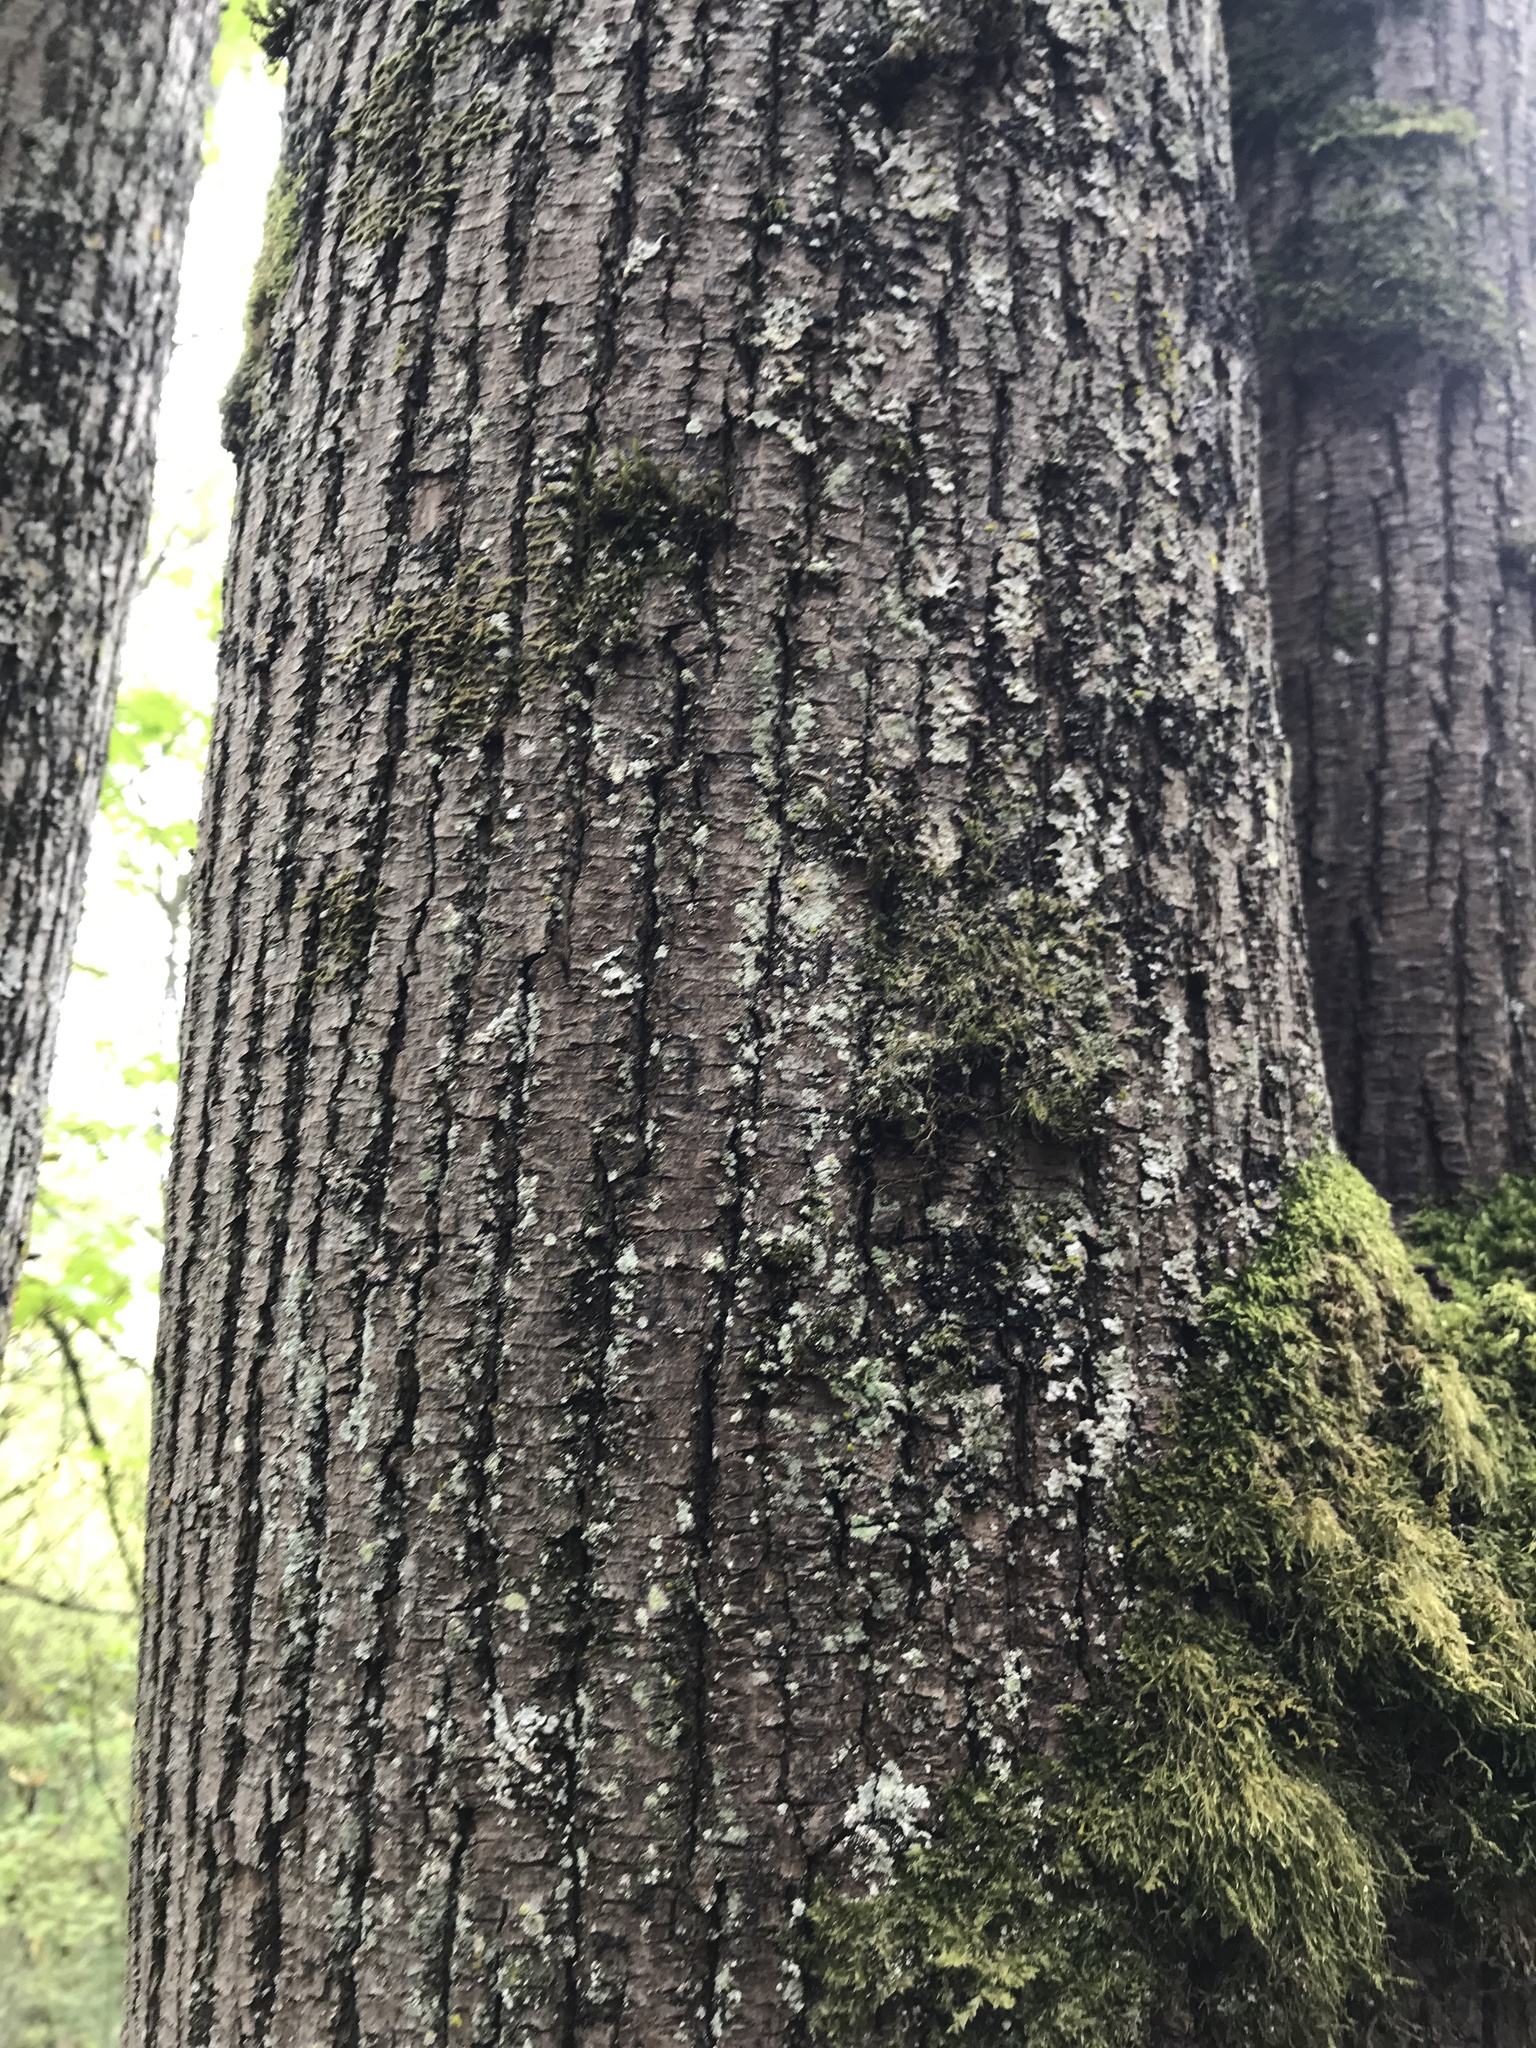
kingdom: Plantae
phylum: Tracheophyta
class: Magnoliopsida
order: Sapindales
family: Sapindaceae
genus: Acer
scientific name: Acer macrophyllum
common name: Oregon maple
